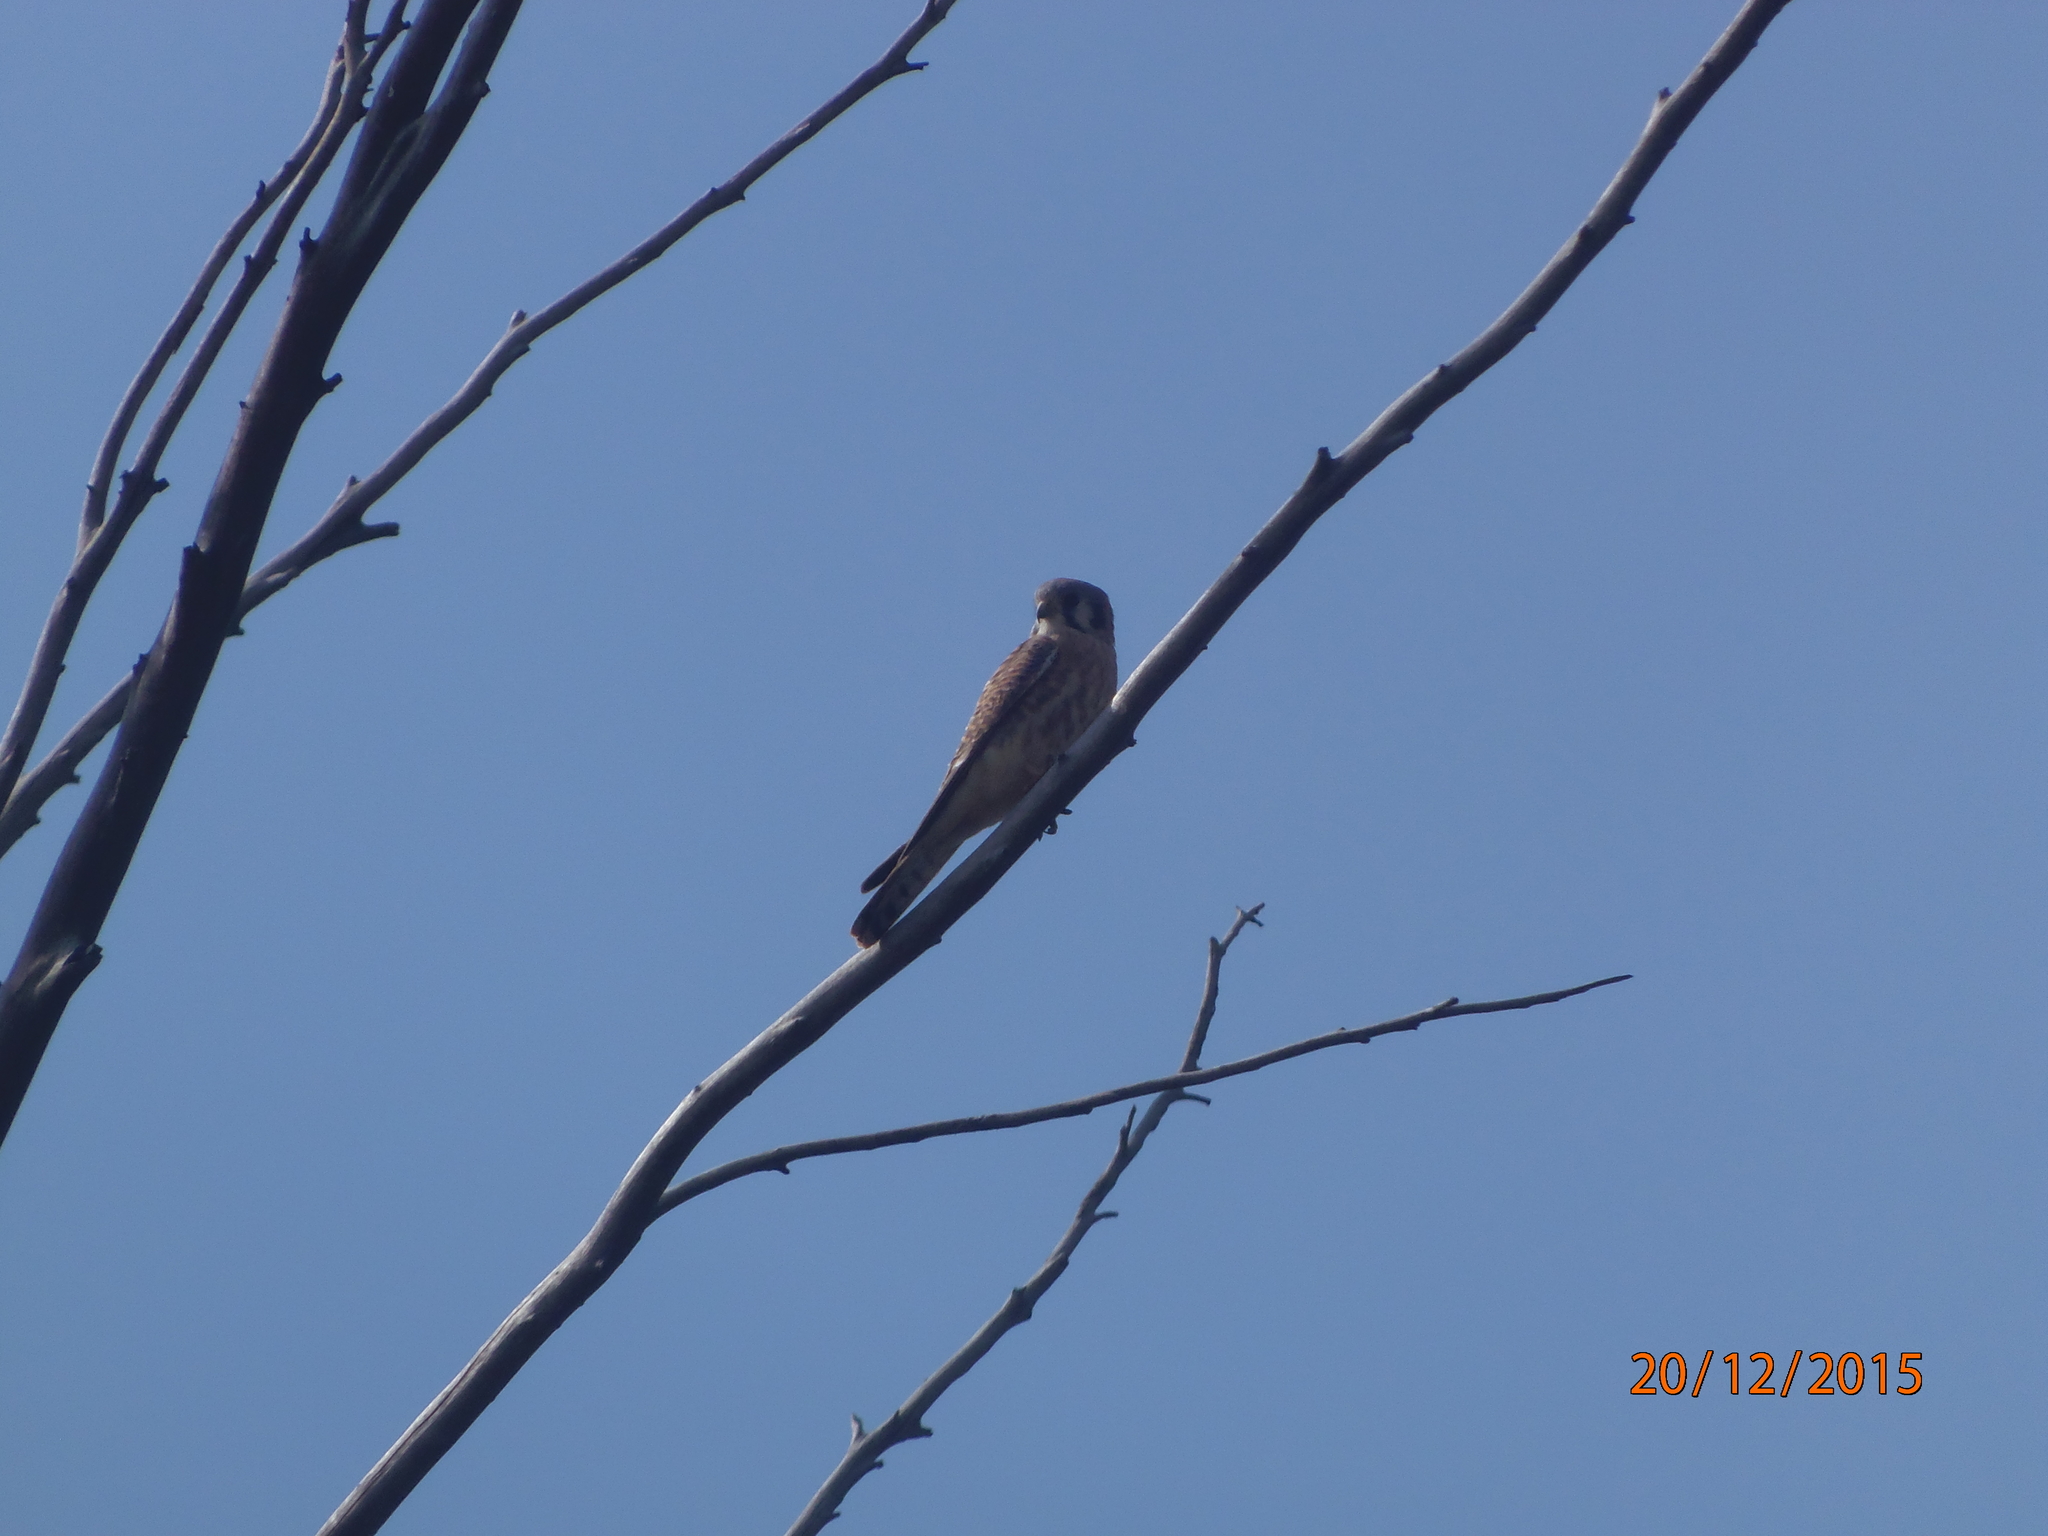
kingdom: Animalia
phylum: Chordata
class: Aves
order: Falconiformes
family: Falconidae
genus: Falco
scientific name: Falco sparverius
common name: American kestrel
